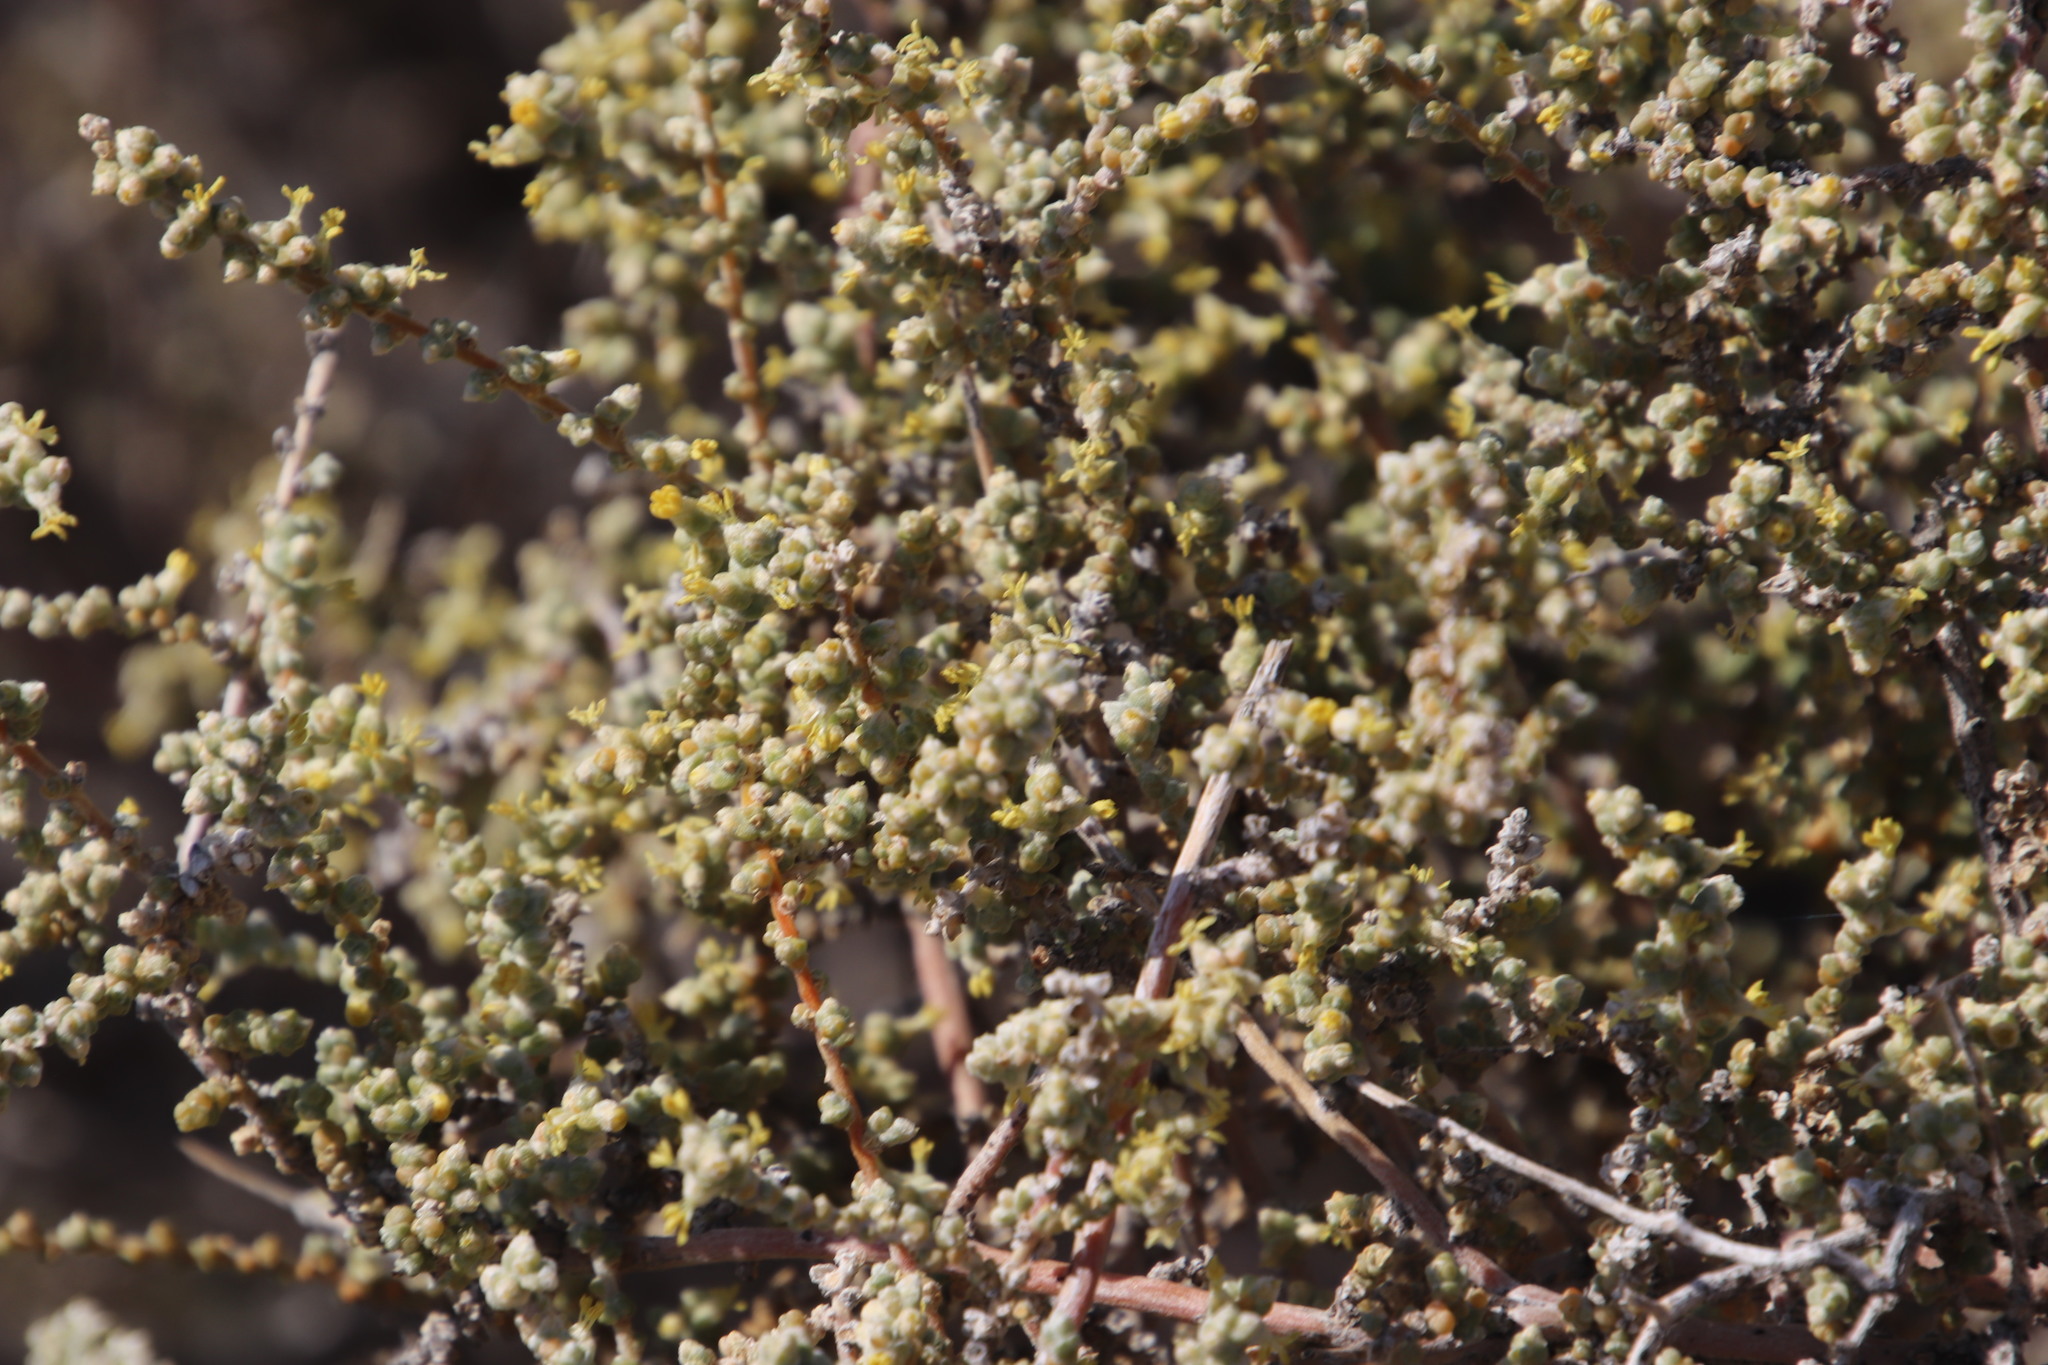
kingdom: Plantae
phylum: Tracheophyta
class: Magnoliopsida
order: Caryophyllales
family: Amaranthaceae
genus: Caroxylon
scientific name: Caroxylon aphyllum
